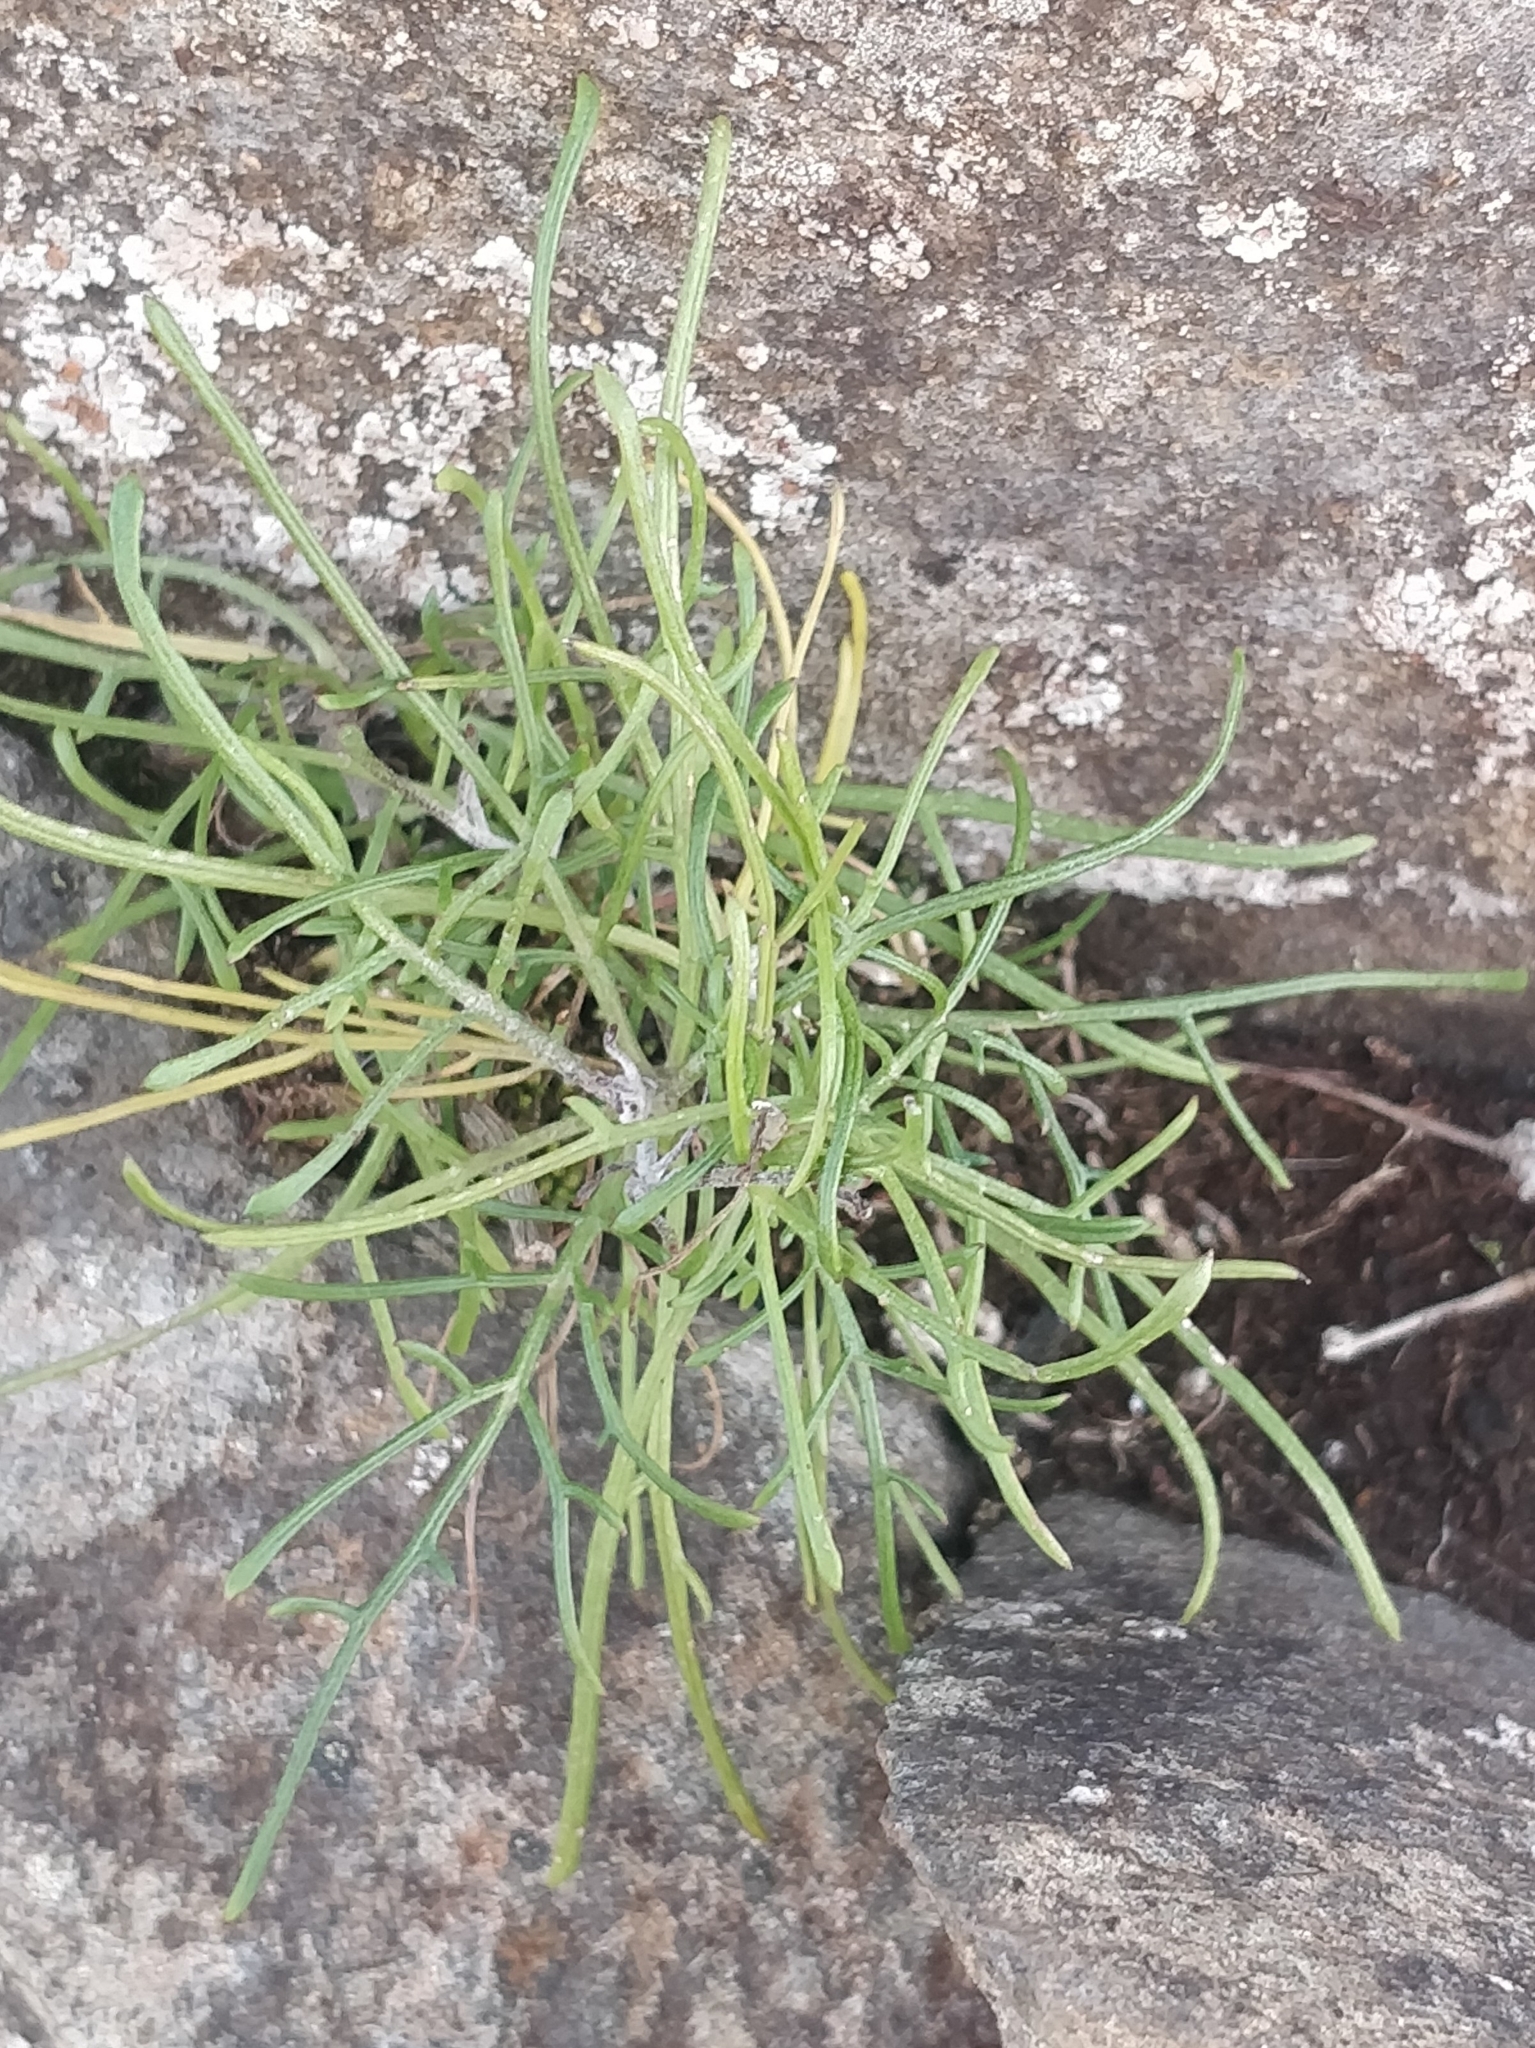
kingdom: Plantae
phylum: Tracheophyta
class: Magnoliopsida
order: Asterales
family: Asteraceae
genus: Tolpis
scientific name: Tolpis succulenta
